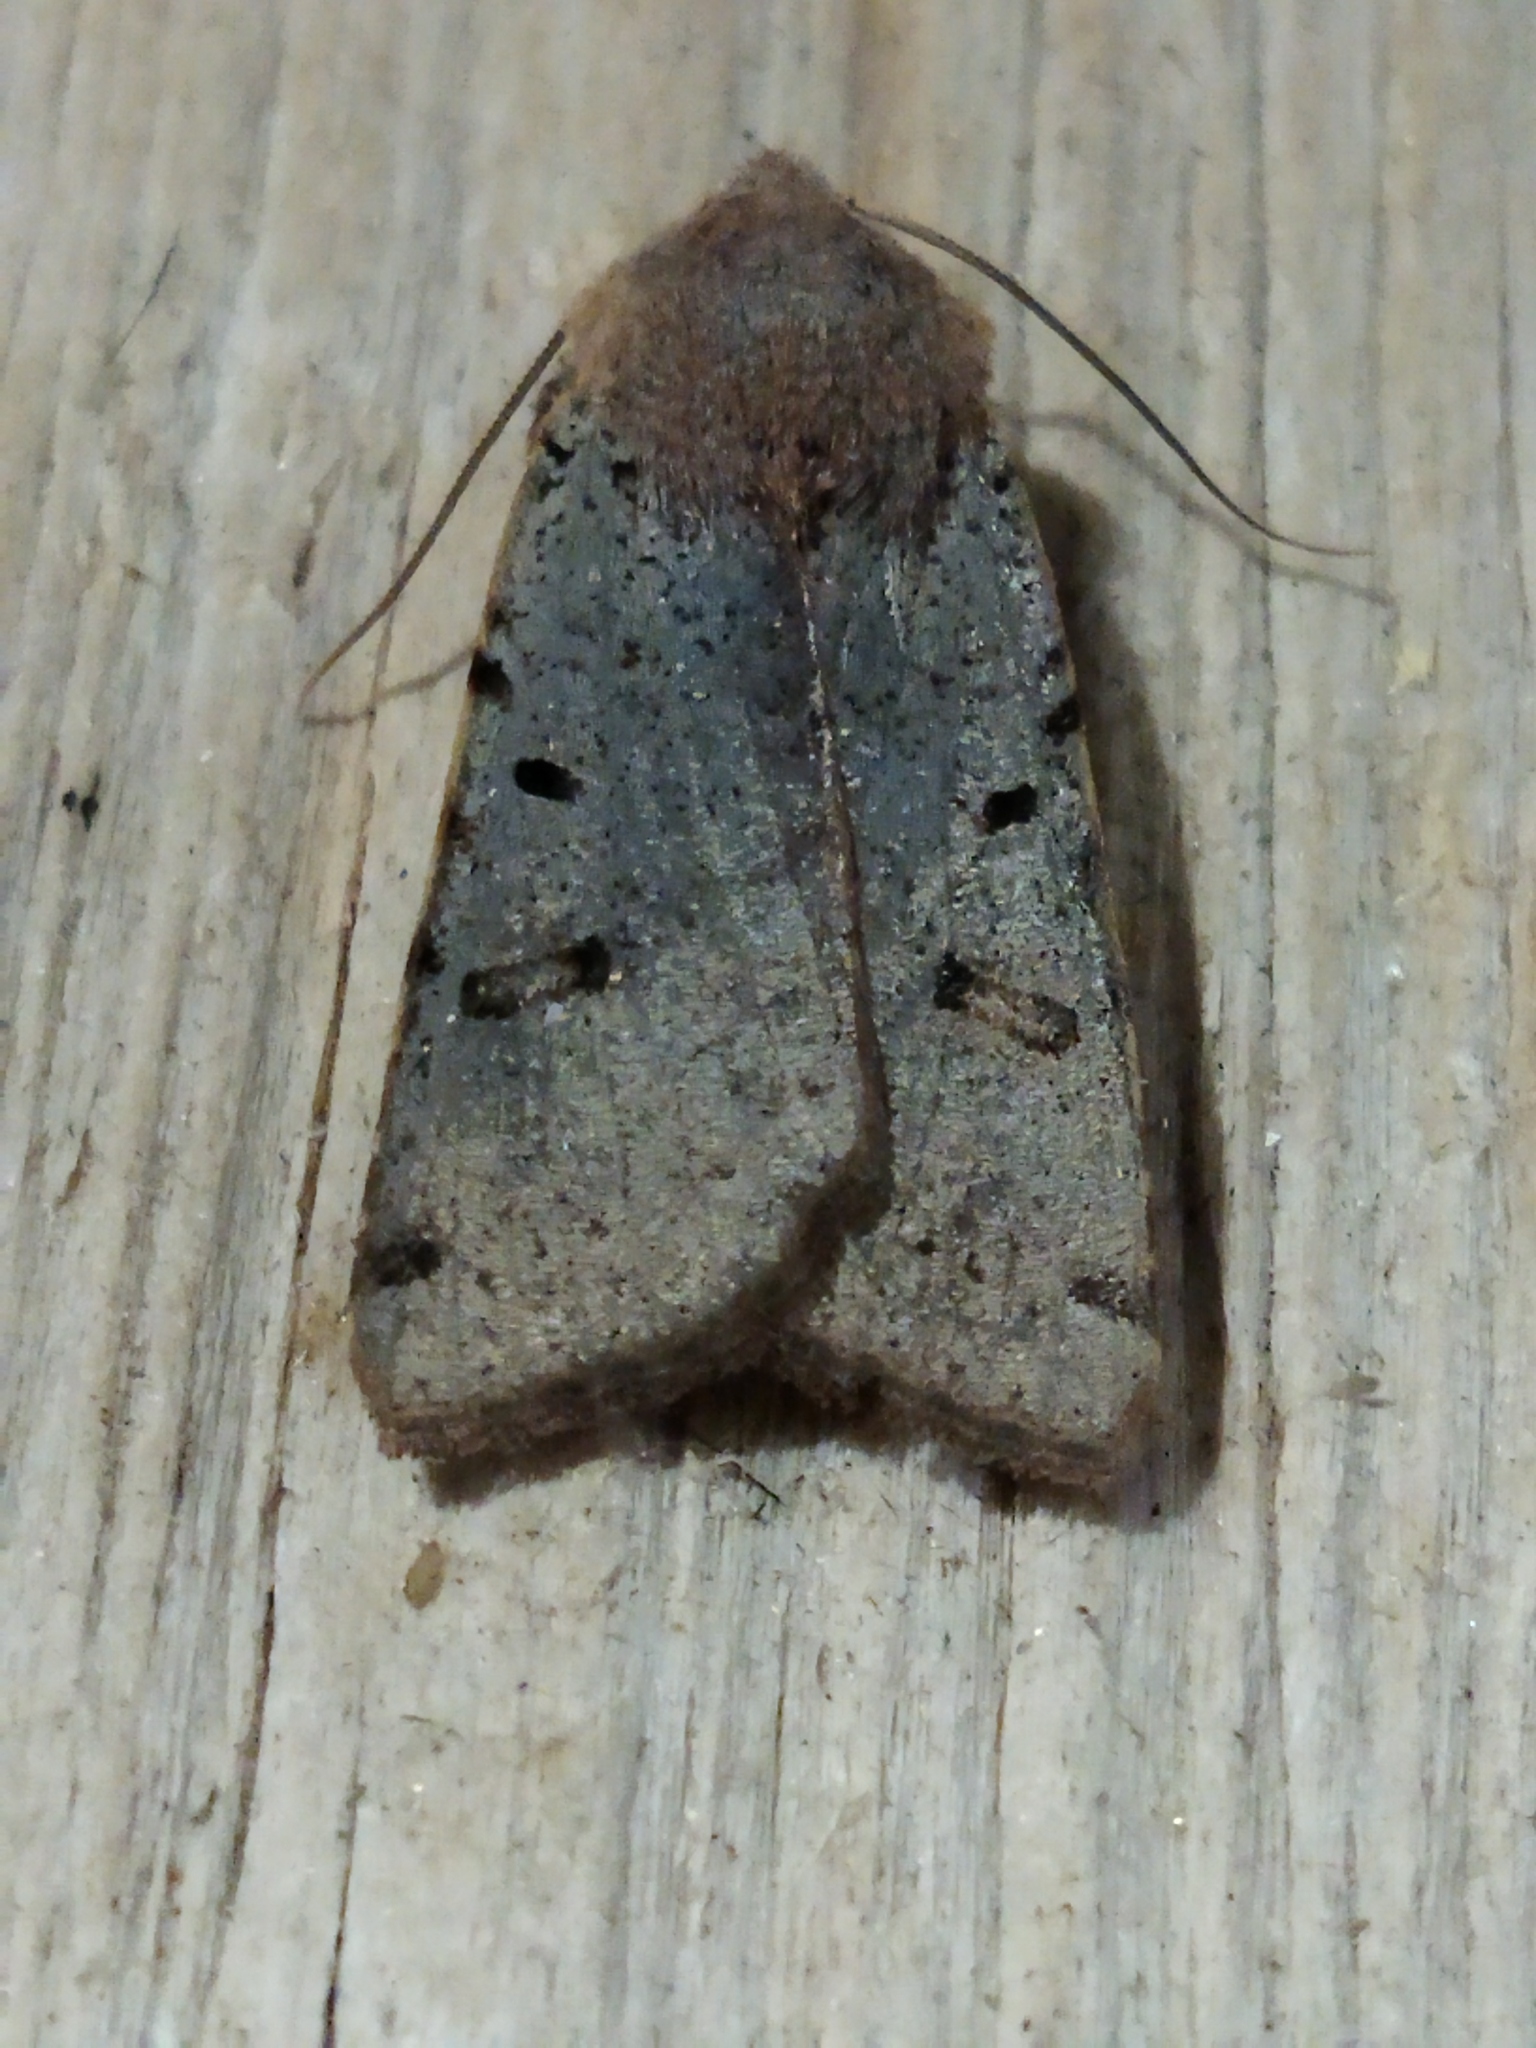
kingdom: Animalia
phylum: Arthropoda
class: Insecta
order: Lepidoptera
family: Noctuidae
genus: Agrochola
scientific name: Agrochola lychnidis
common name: Beaded chestnut
